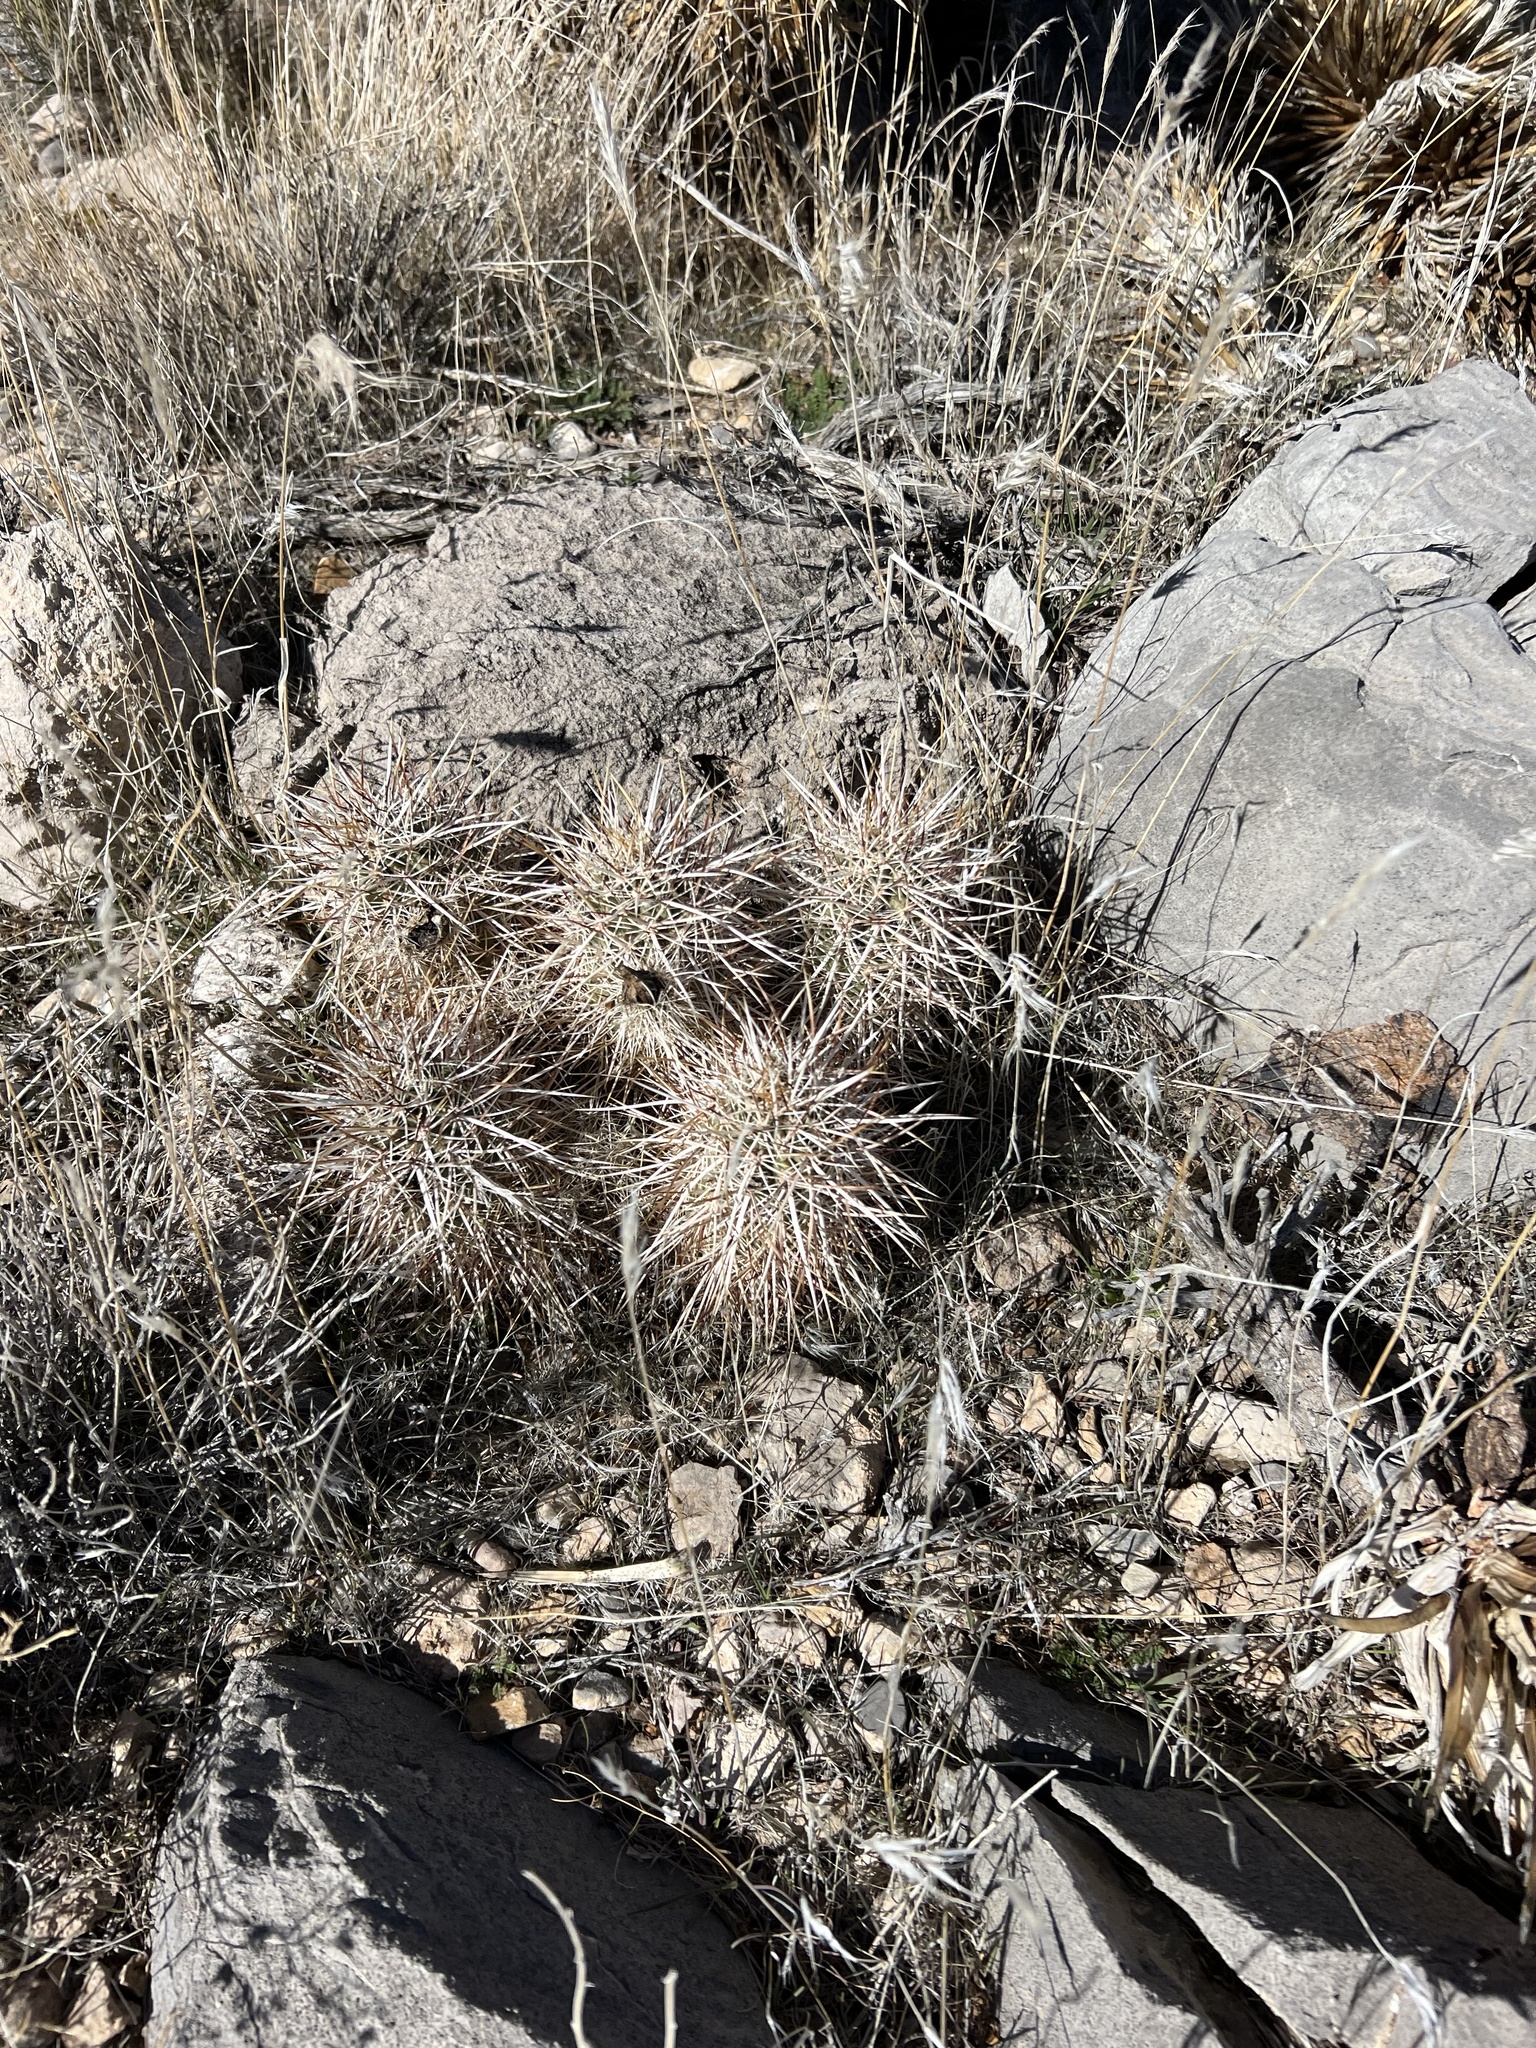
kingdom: Plantae
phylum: Tracheophyta
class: Magnoliopsida
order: Caryophyllales
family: Cactaceae
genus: Echinocereus
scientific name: Echinocereus engelmannii
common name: Engelmann's hedgehog cactus
